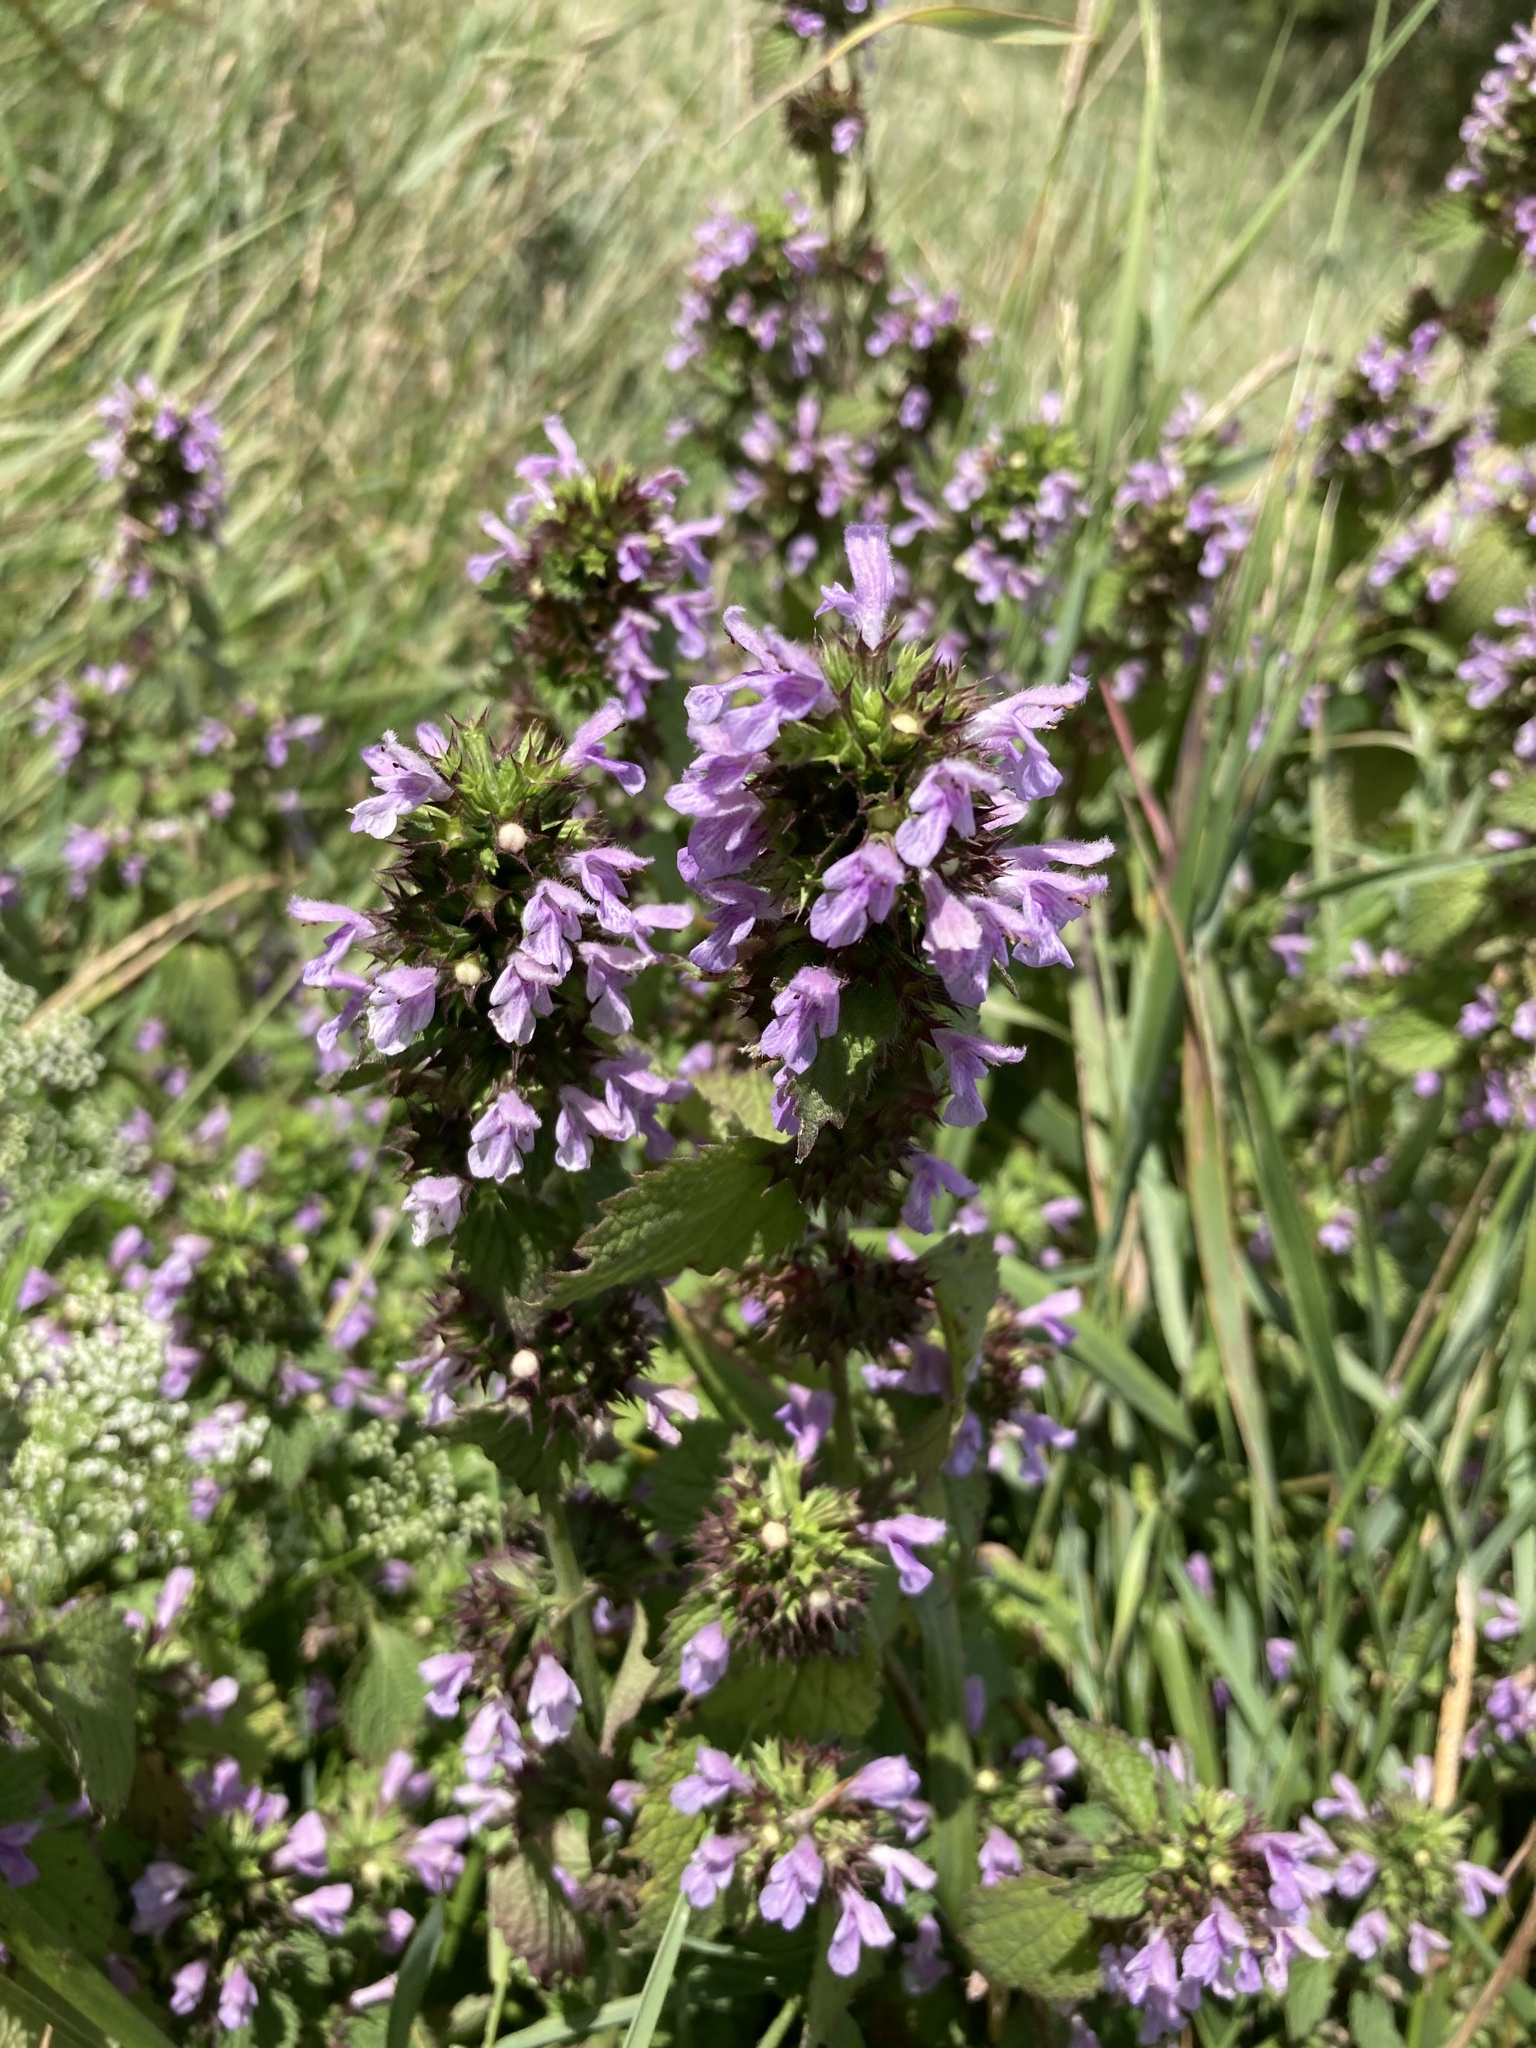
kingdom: Plantae
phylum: Tracheophyta
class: Magnoliopsida
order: Lamiales
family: Lamiaceae
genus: Ballota
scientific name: Ballota nigra
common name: Black horehound
